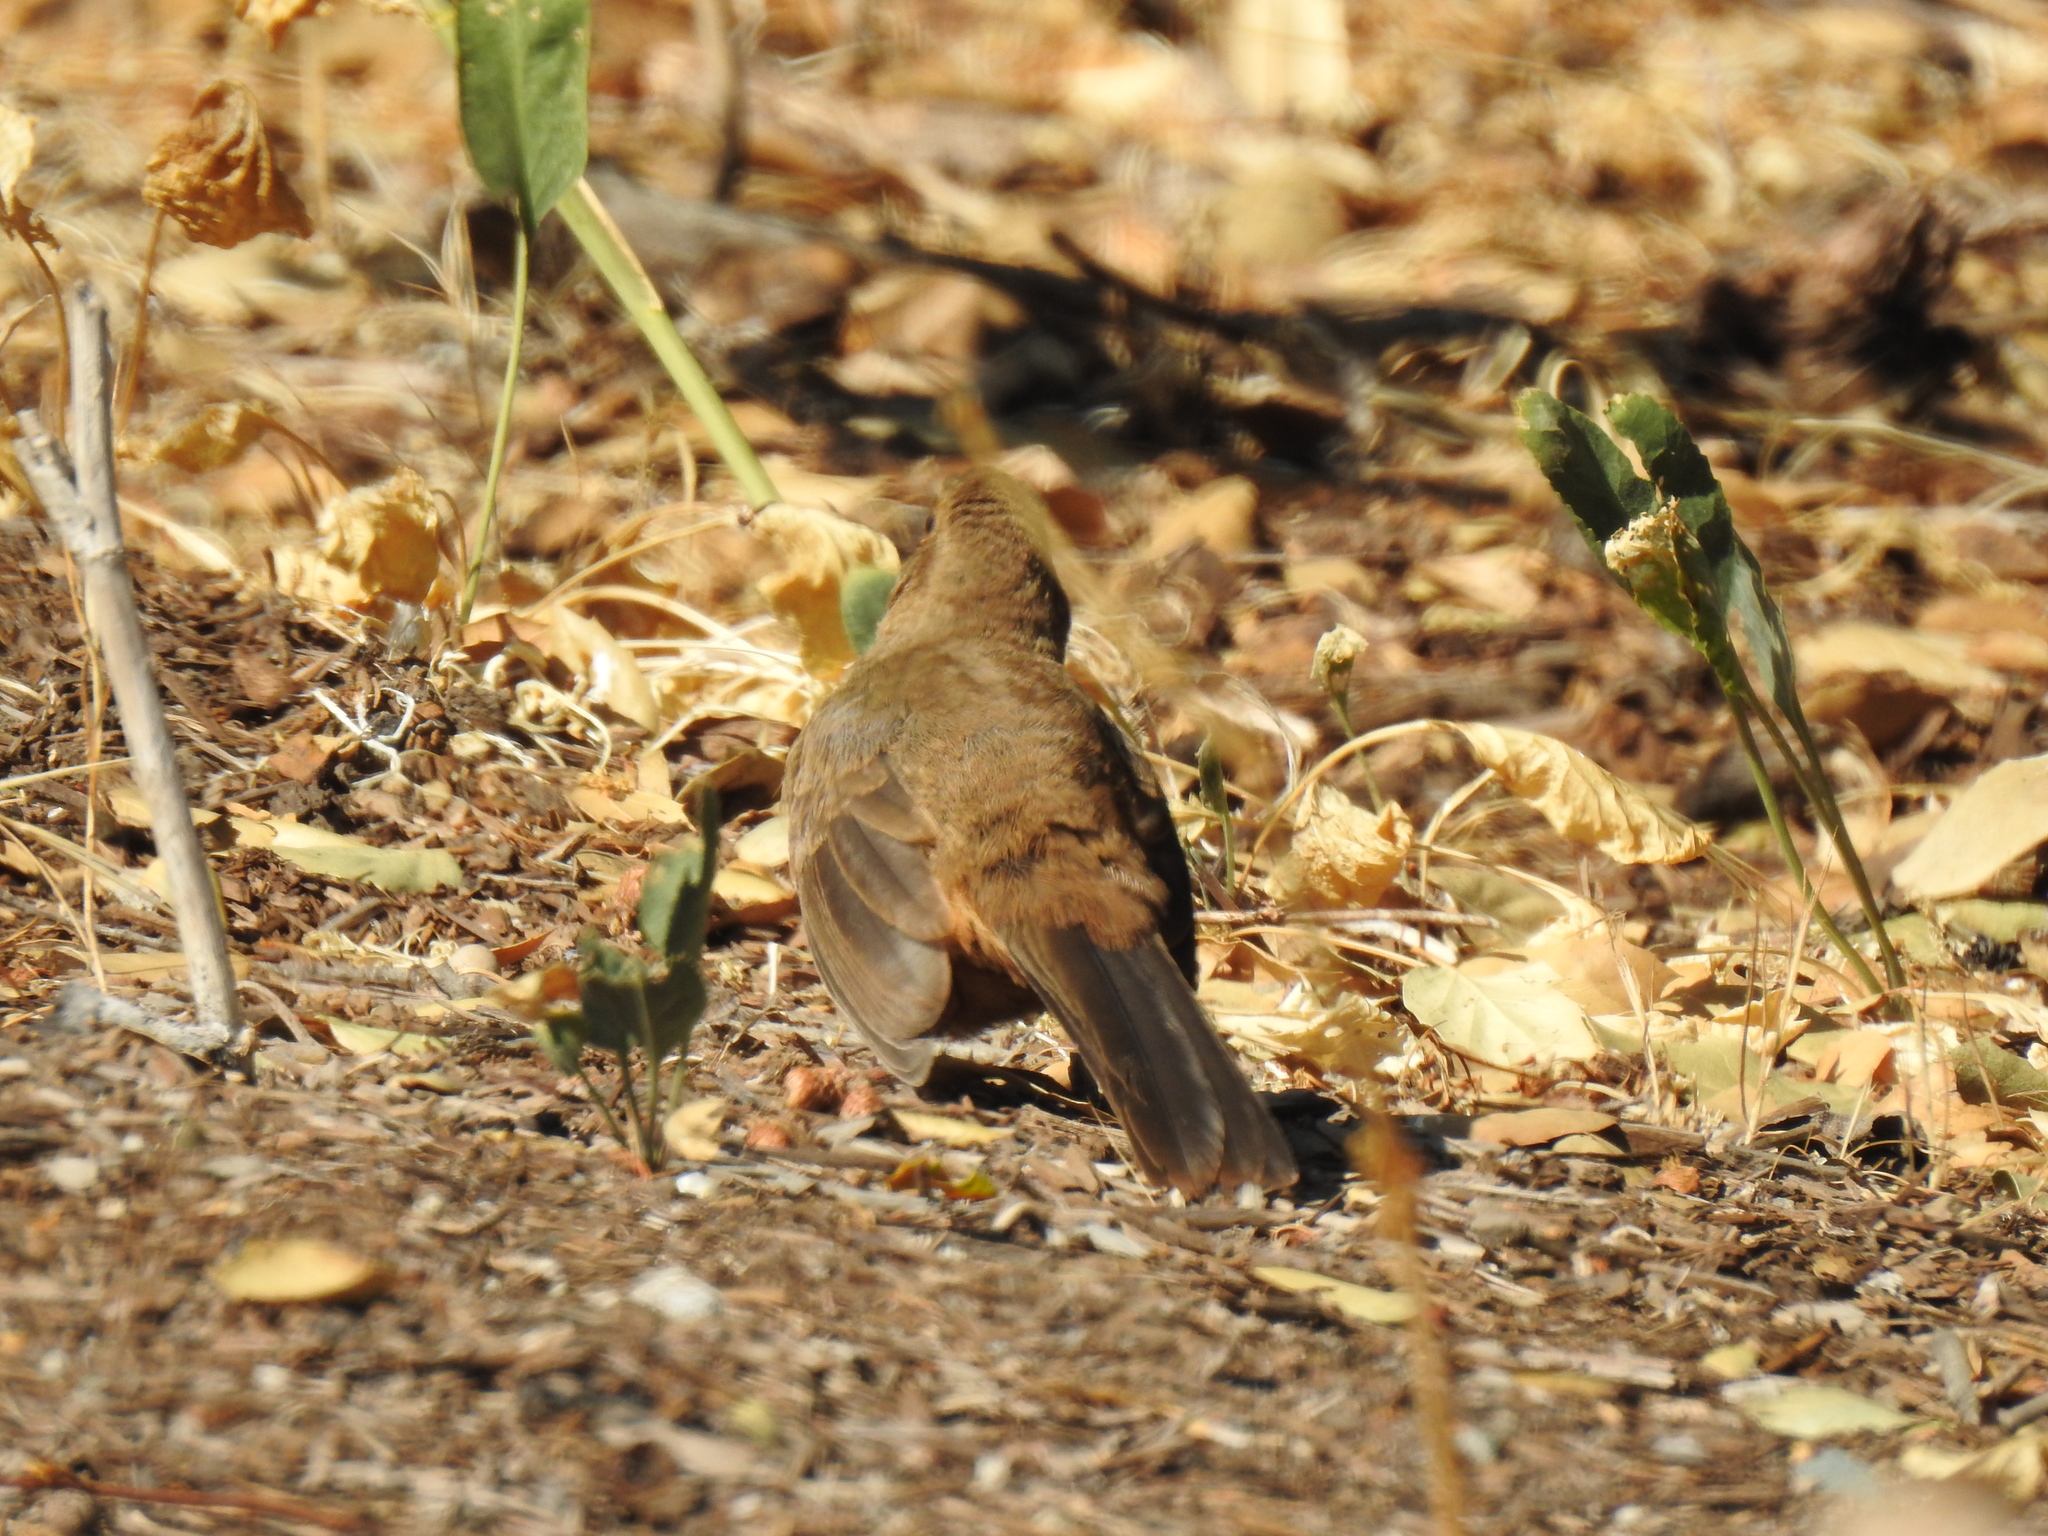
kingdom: Animalia
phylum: Chordata
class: Aves
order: Passeriformes
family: Passerellidae
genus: Melozone
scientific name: Melozone crissalis
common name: California towhee
